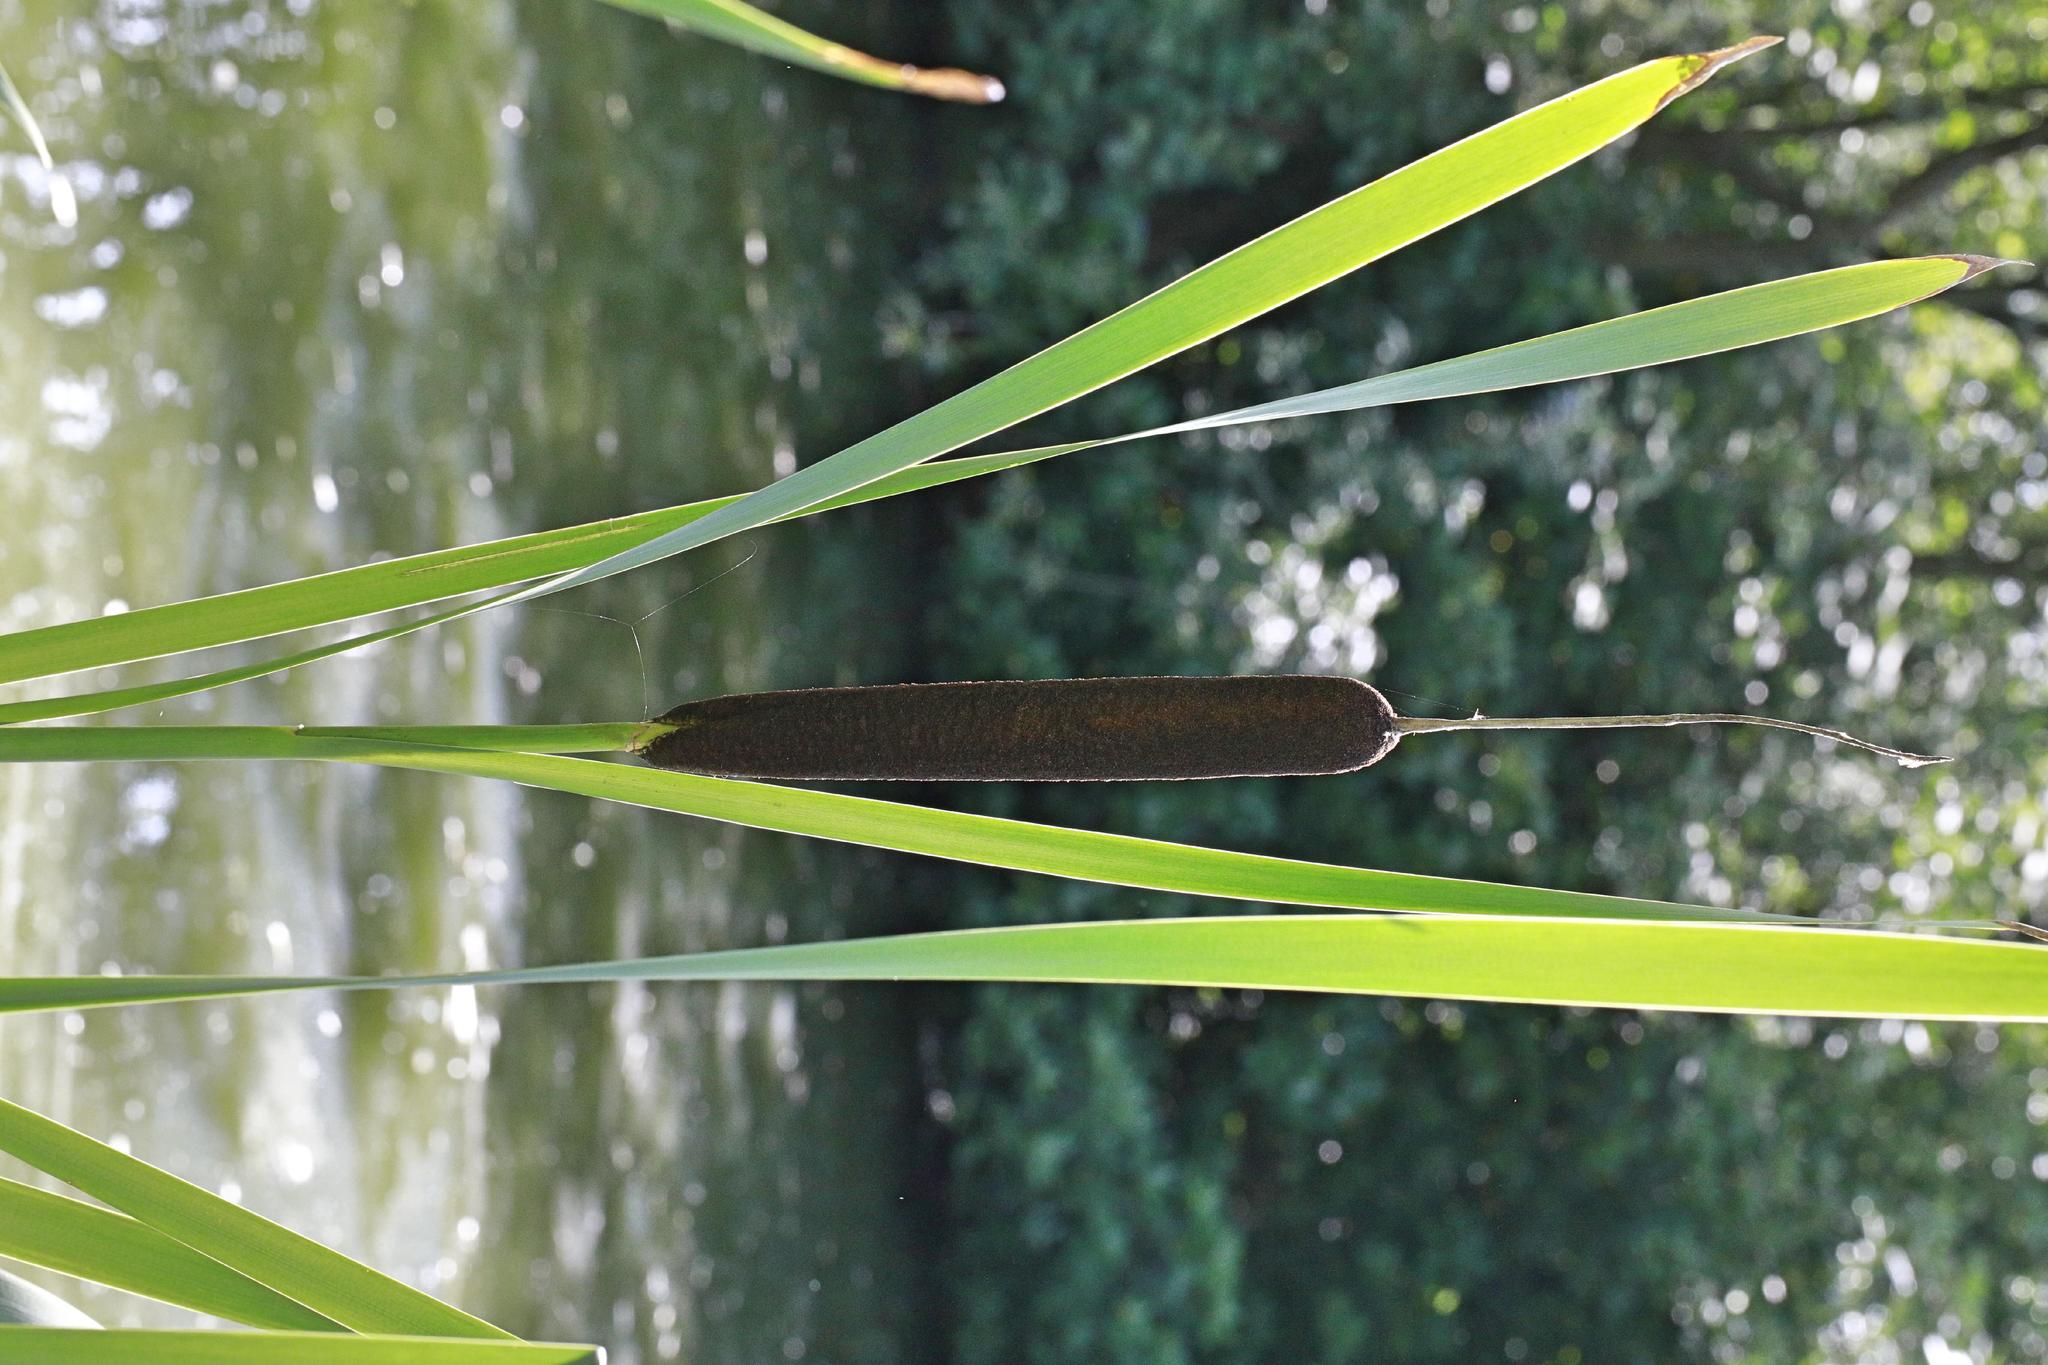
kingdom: Plantae
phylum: Tracheophyta
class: Liliopsida
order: Poales
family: Typhaceae
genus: Typha
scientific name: Typha latifolia
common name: Broadleaf cattail
